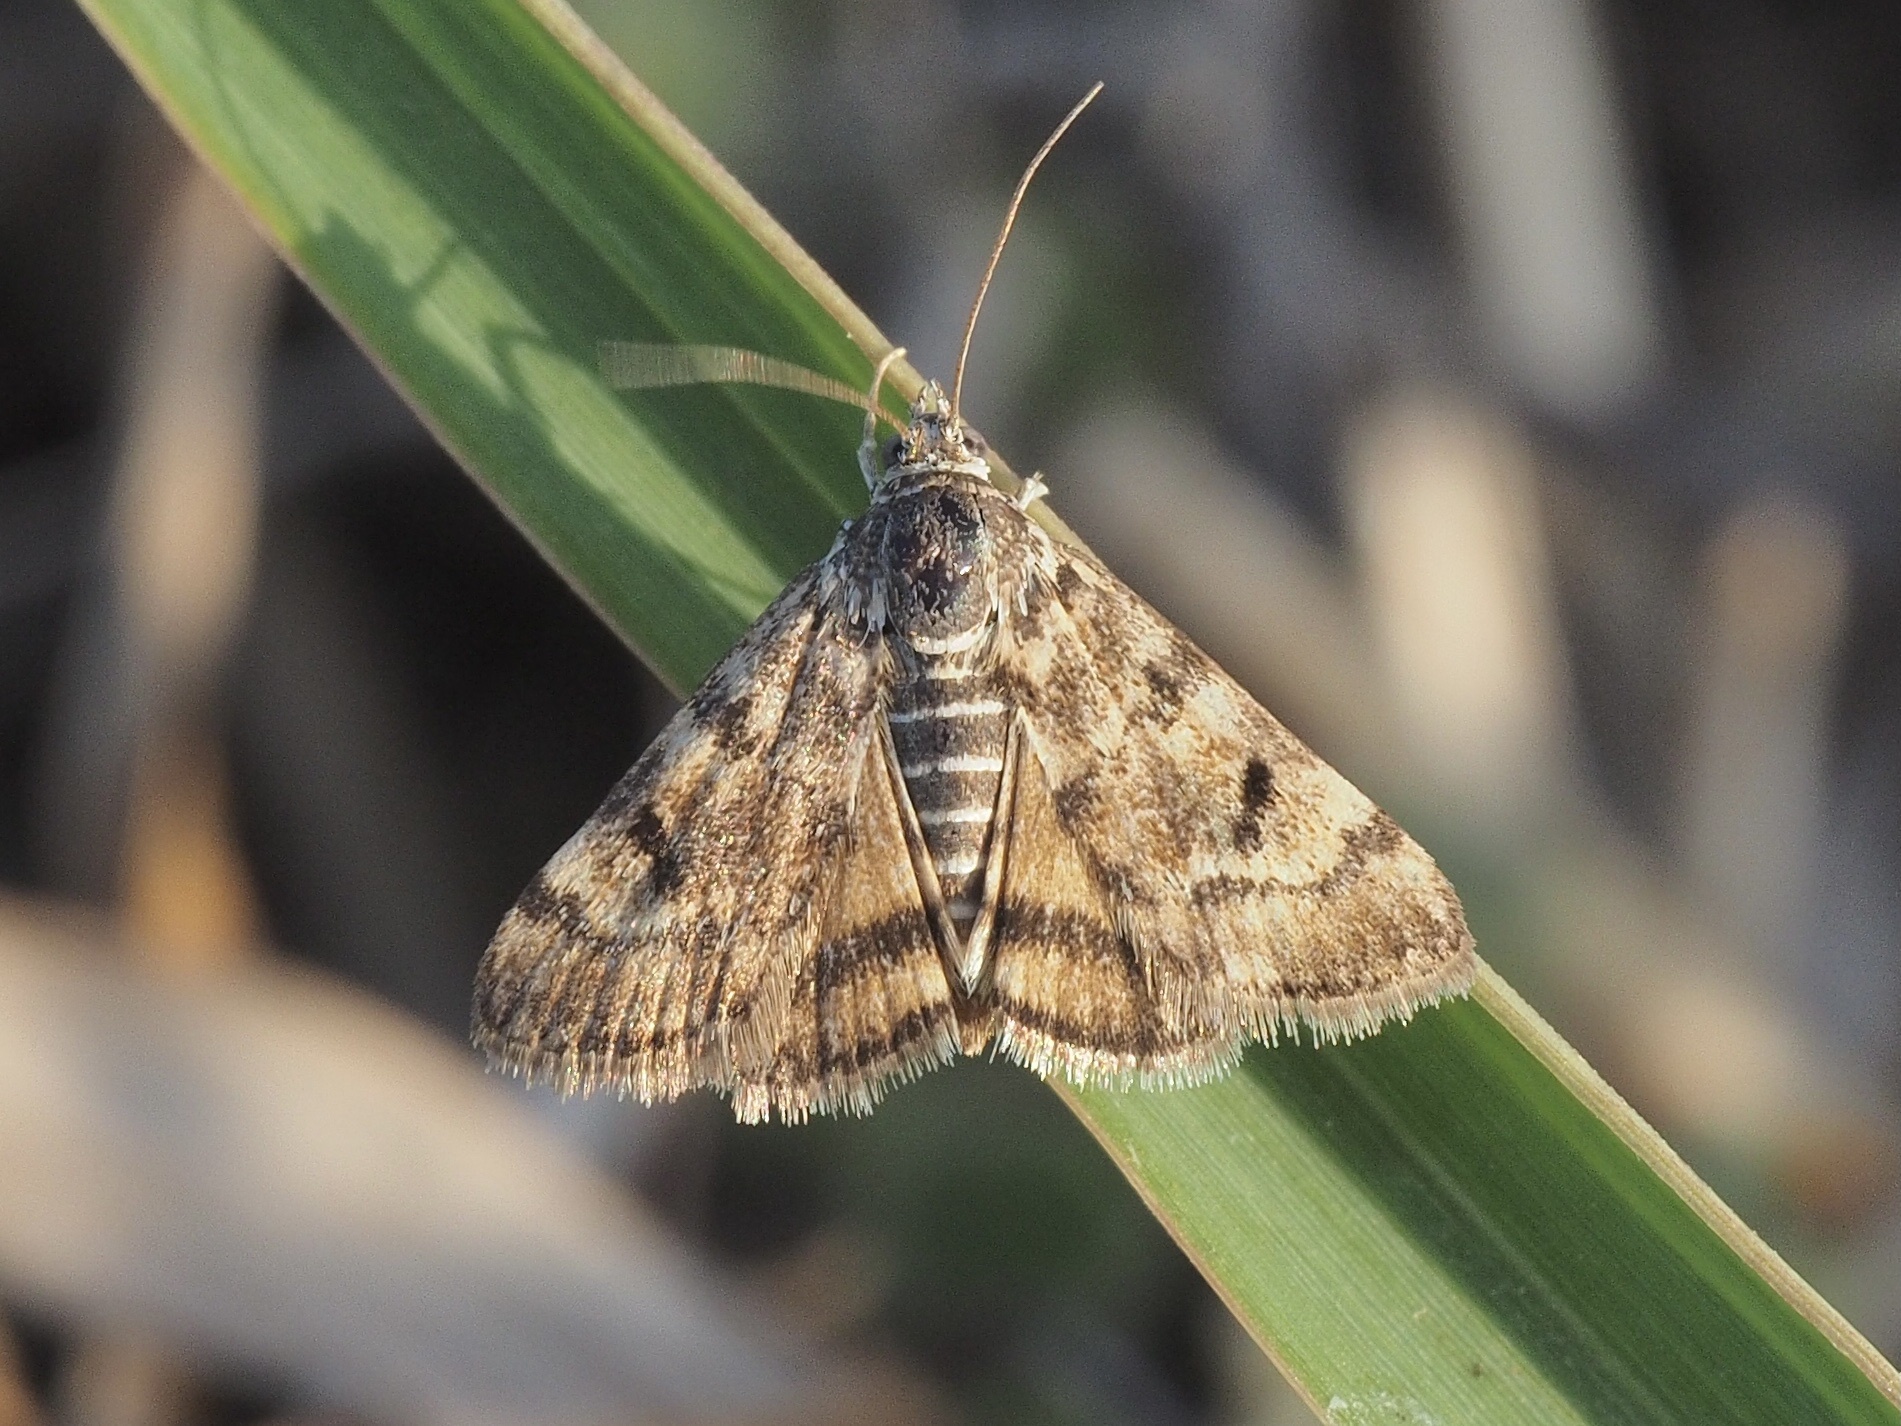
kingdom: Animalia
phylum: Arthropoda
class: Insecta
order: Lepidoptera
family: Crambidae
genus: Noctuelia
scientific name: Noctuelia Aporodes floralis
